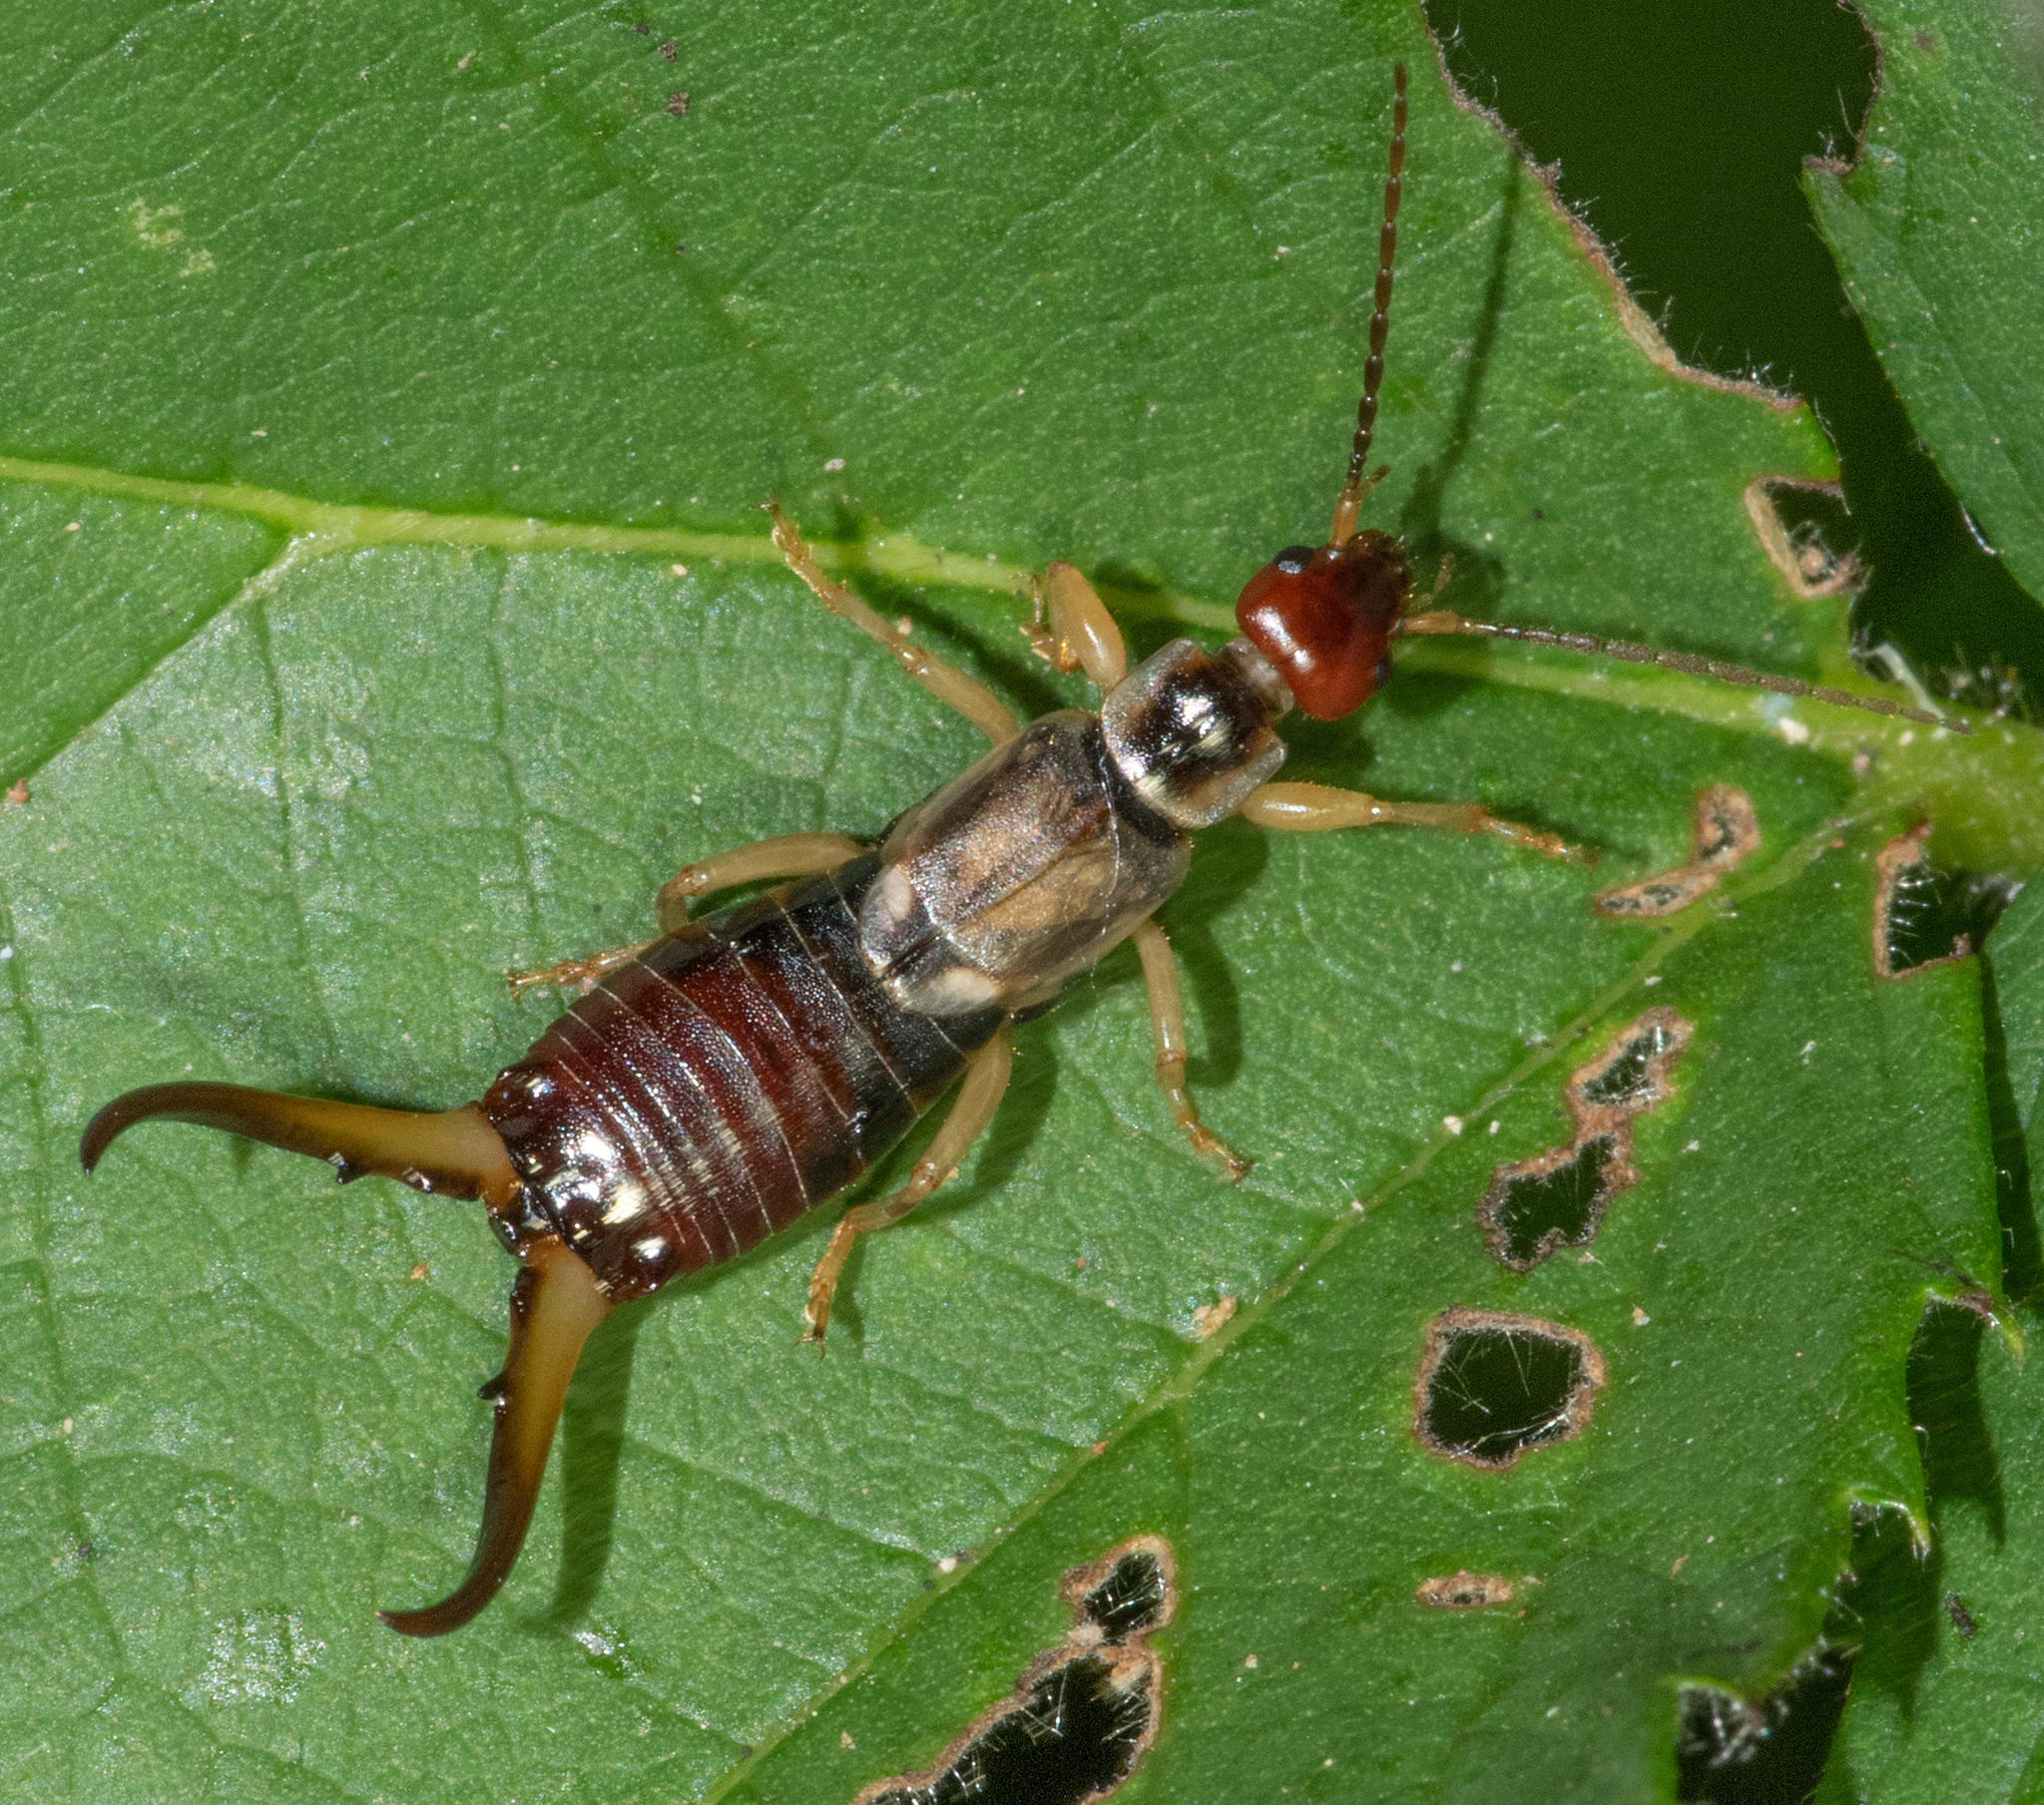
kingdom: Animalia
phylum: Arthropoda
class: Insecta
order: Dermaptera
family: Forficulidae
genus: Forficula
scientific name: Forficula
